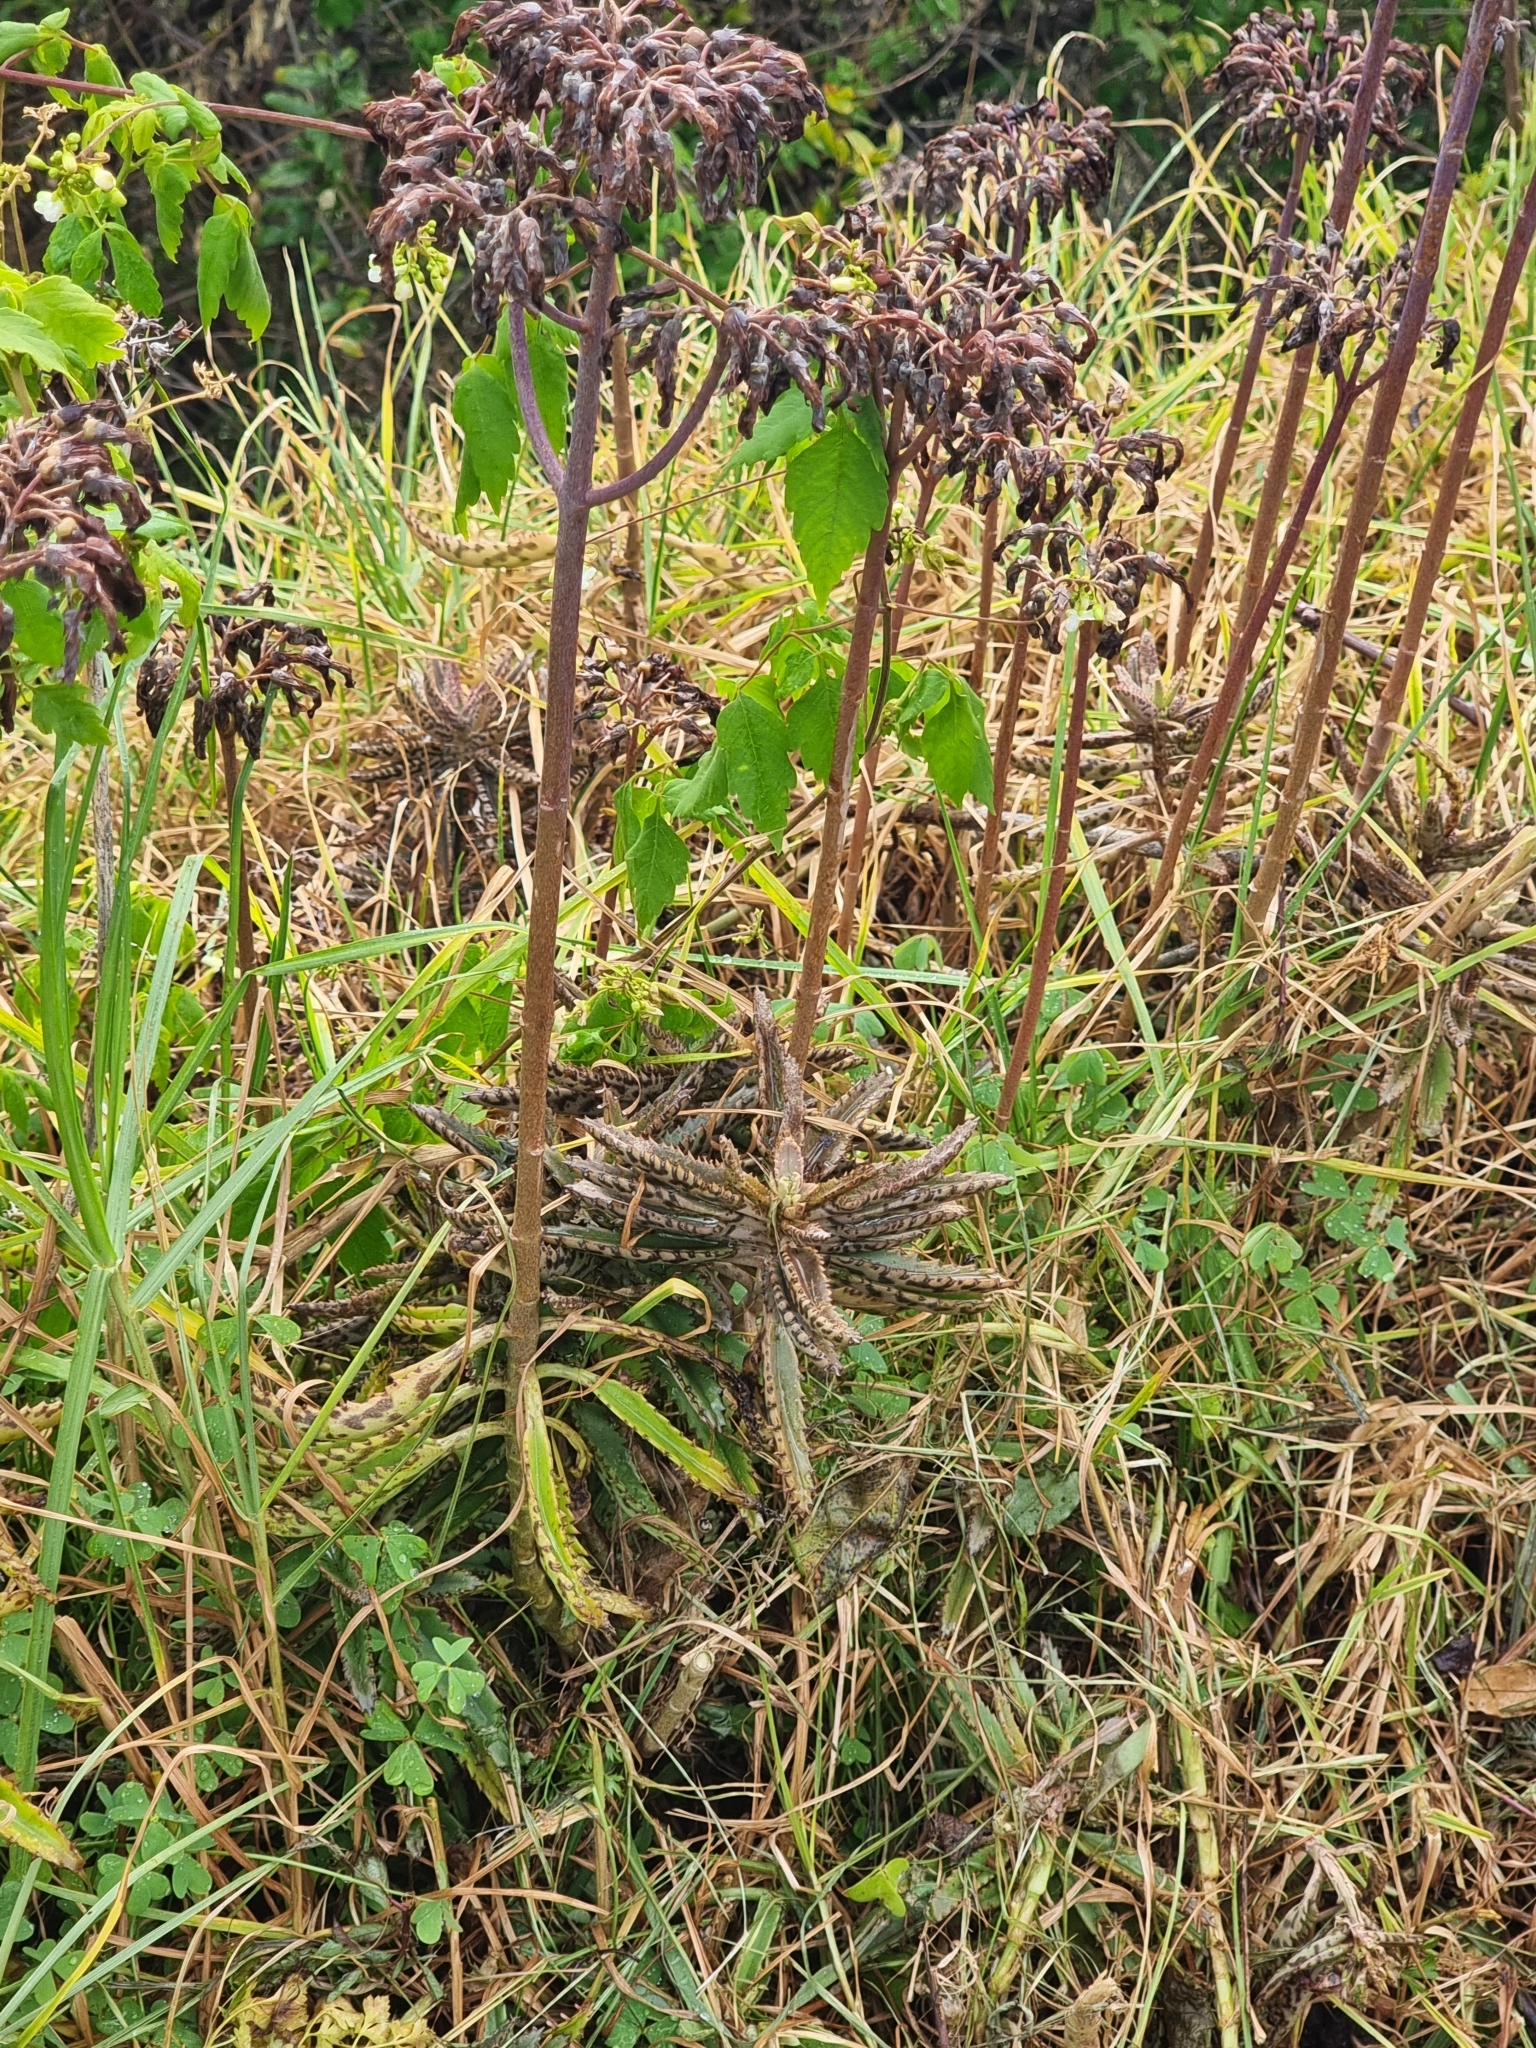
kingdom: Plantae
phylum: Tracheophyta
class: Magnoliopsida
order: Saxifragales
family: Crassulaceae
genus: Kalanchoe
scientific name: Kalanchoe houghtonii
